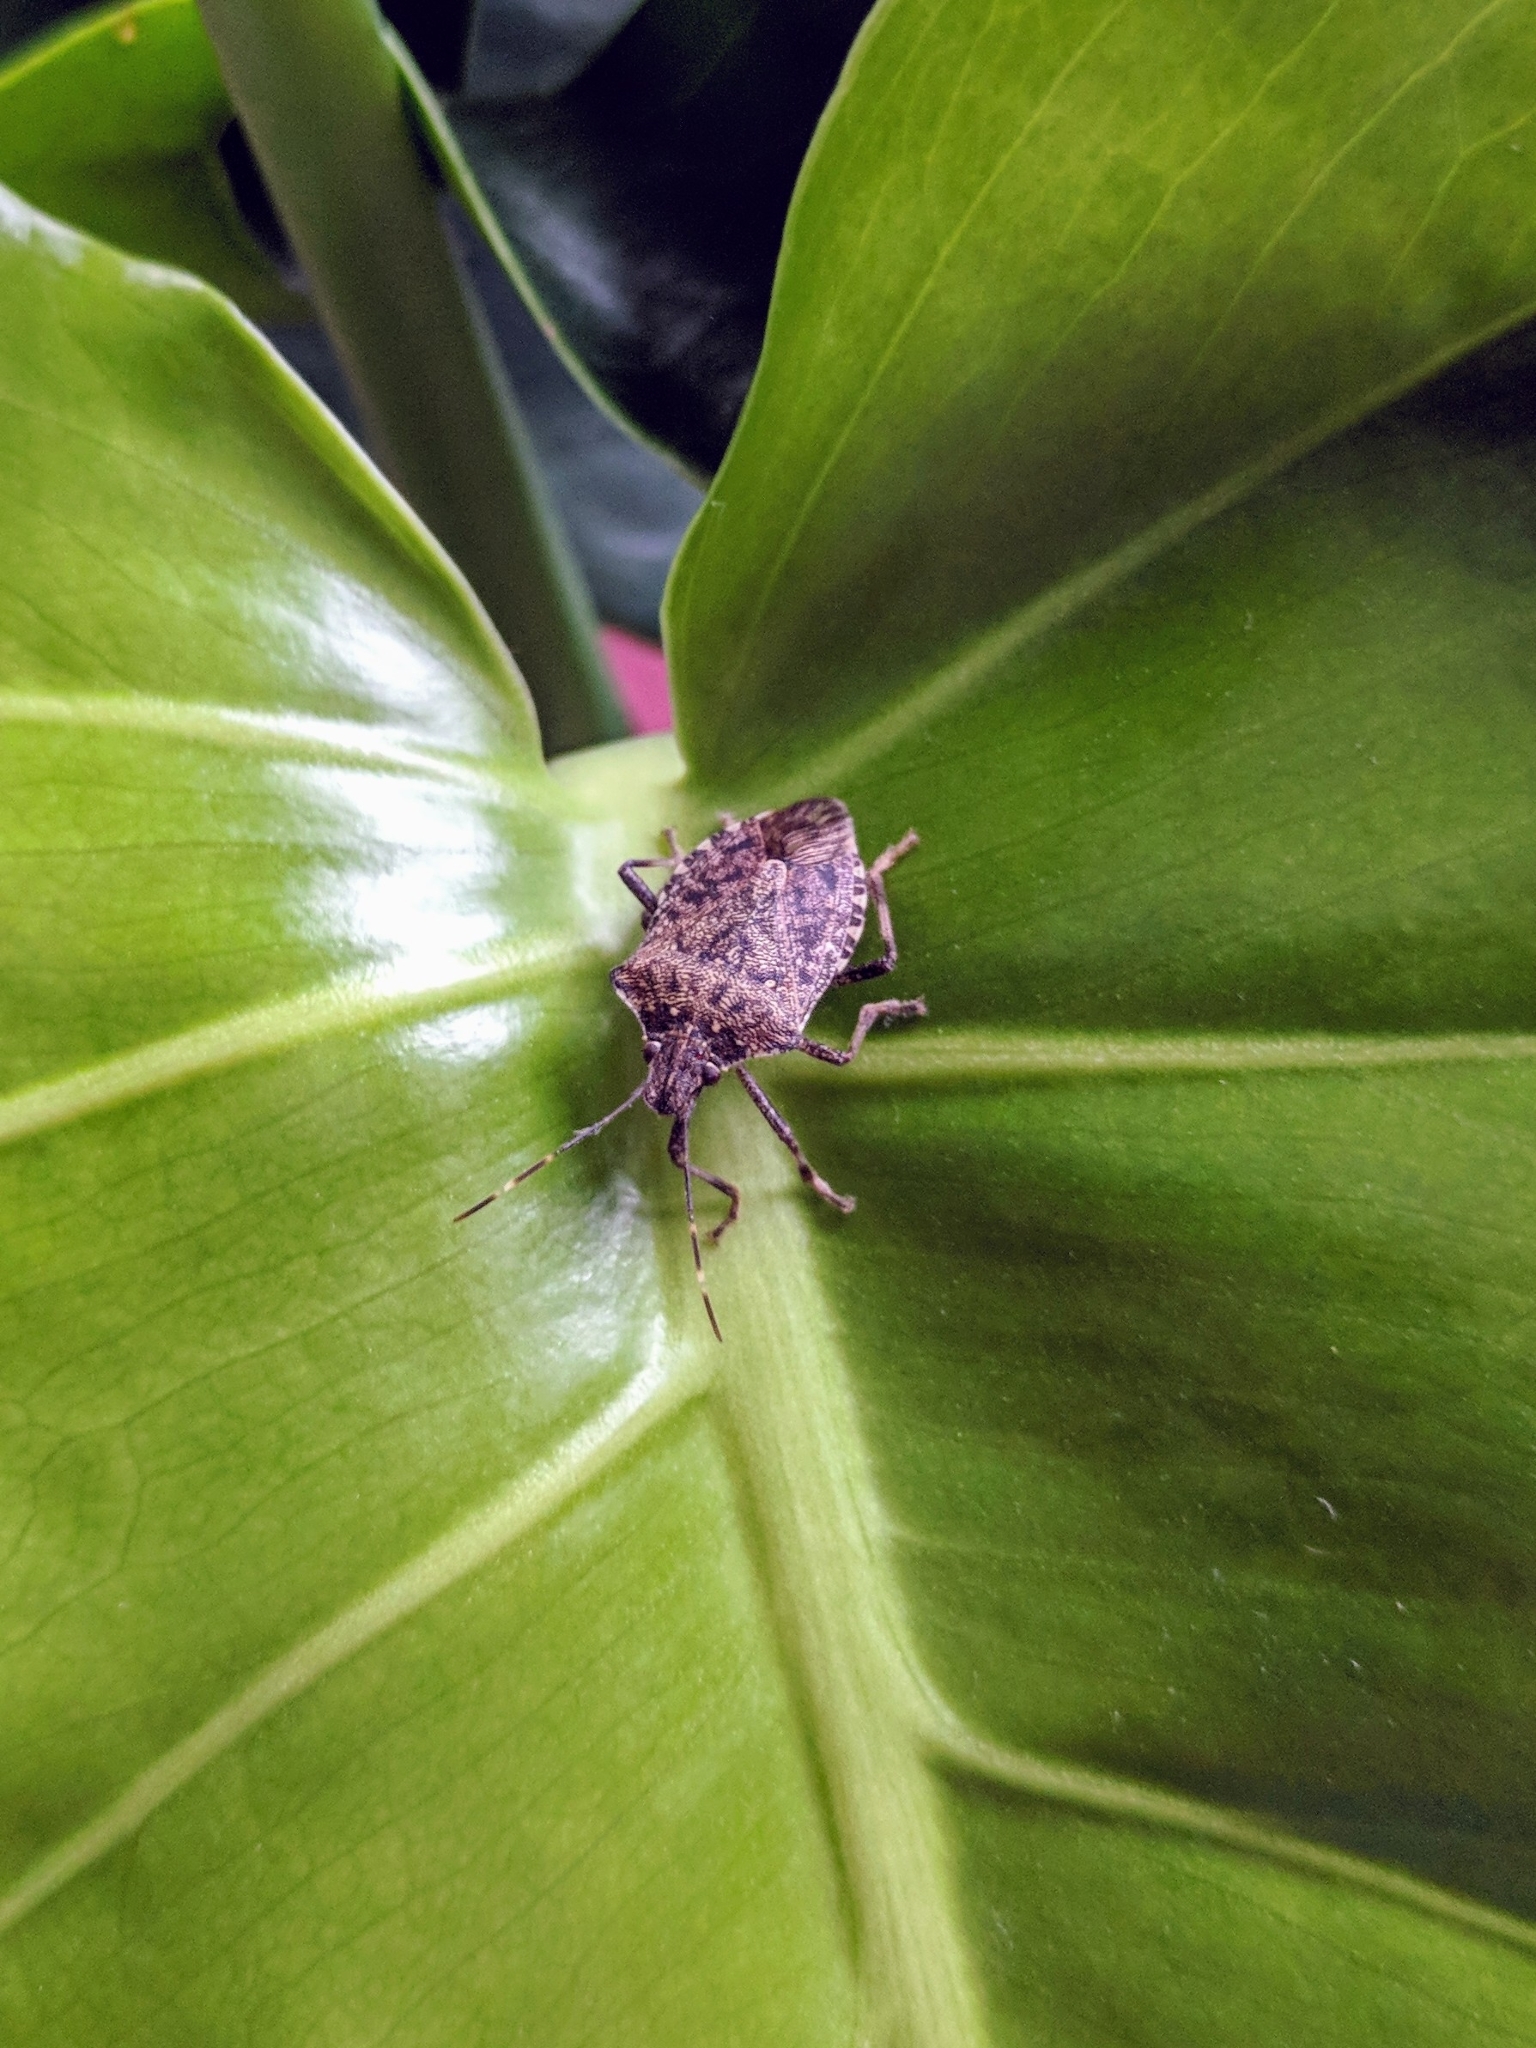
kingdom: Animalia
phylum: Arthropoda
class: Insecta
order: Hemiptera
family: Pentatomidae
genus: Halyomorpha
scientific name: Halyomorpha halys
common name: Brown marmorated stink bug
